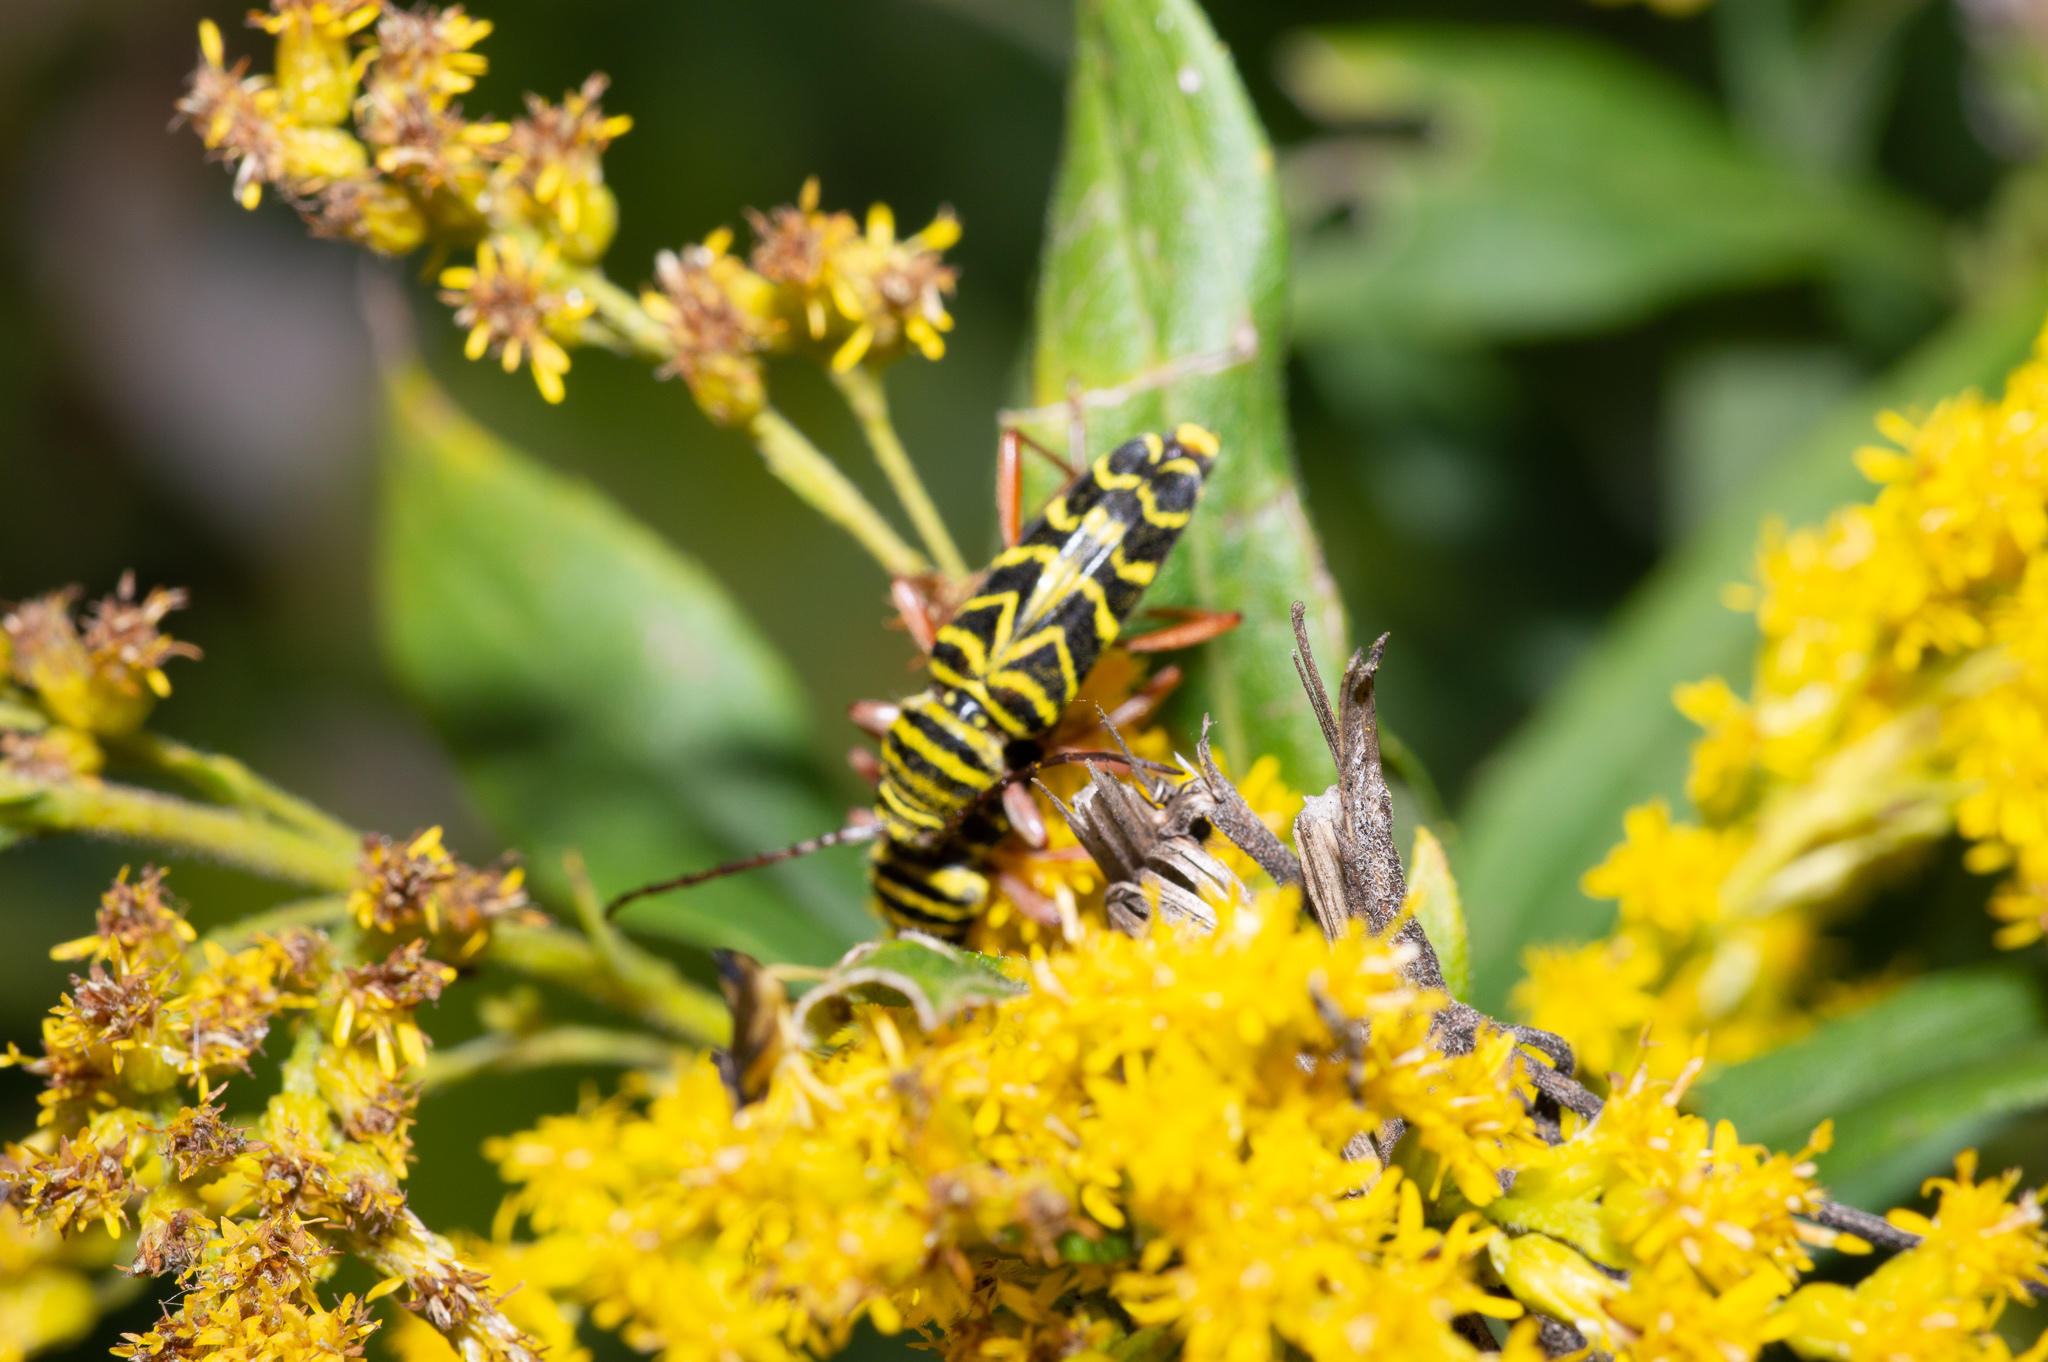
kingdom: Animalia
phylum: Arthropoda
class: Insecta
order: Coleoptera
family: Cerambycidae
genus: Megacyllene
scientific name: Megacyllene robiniae
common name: Locust borer
